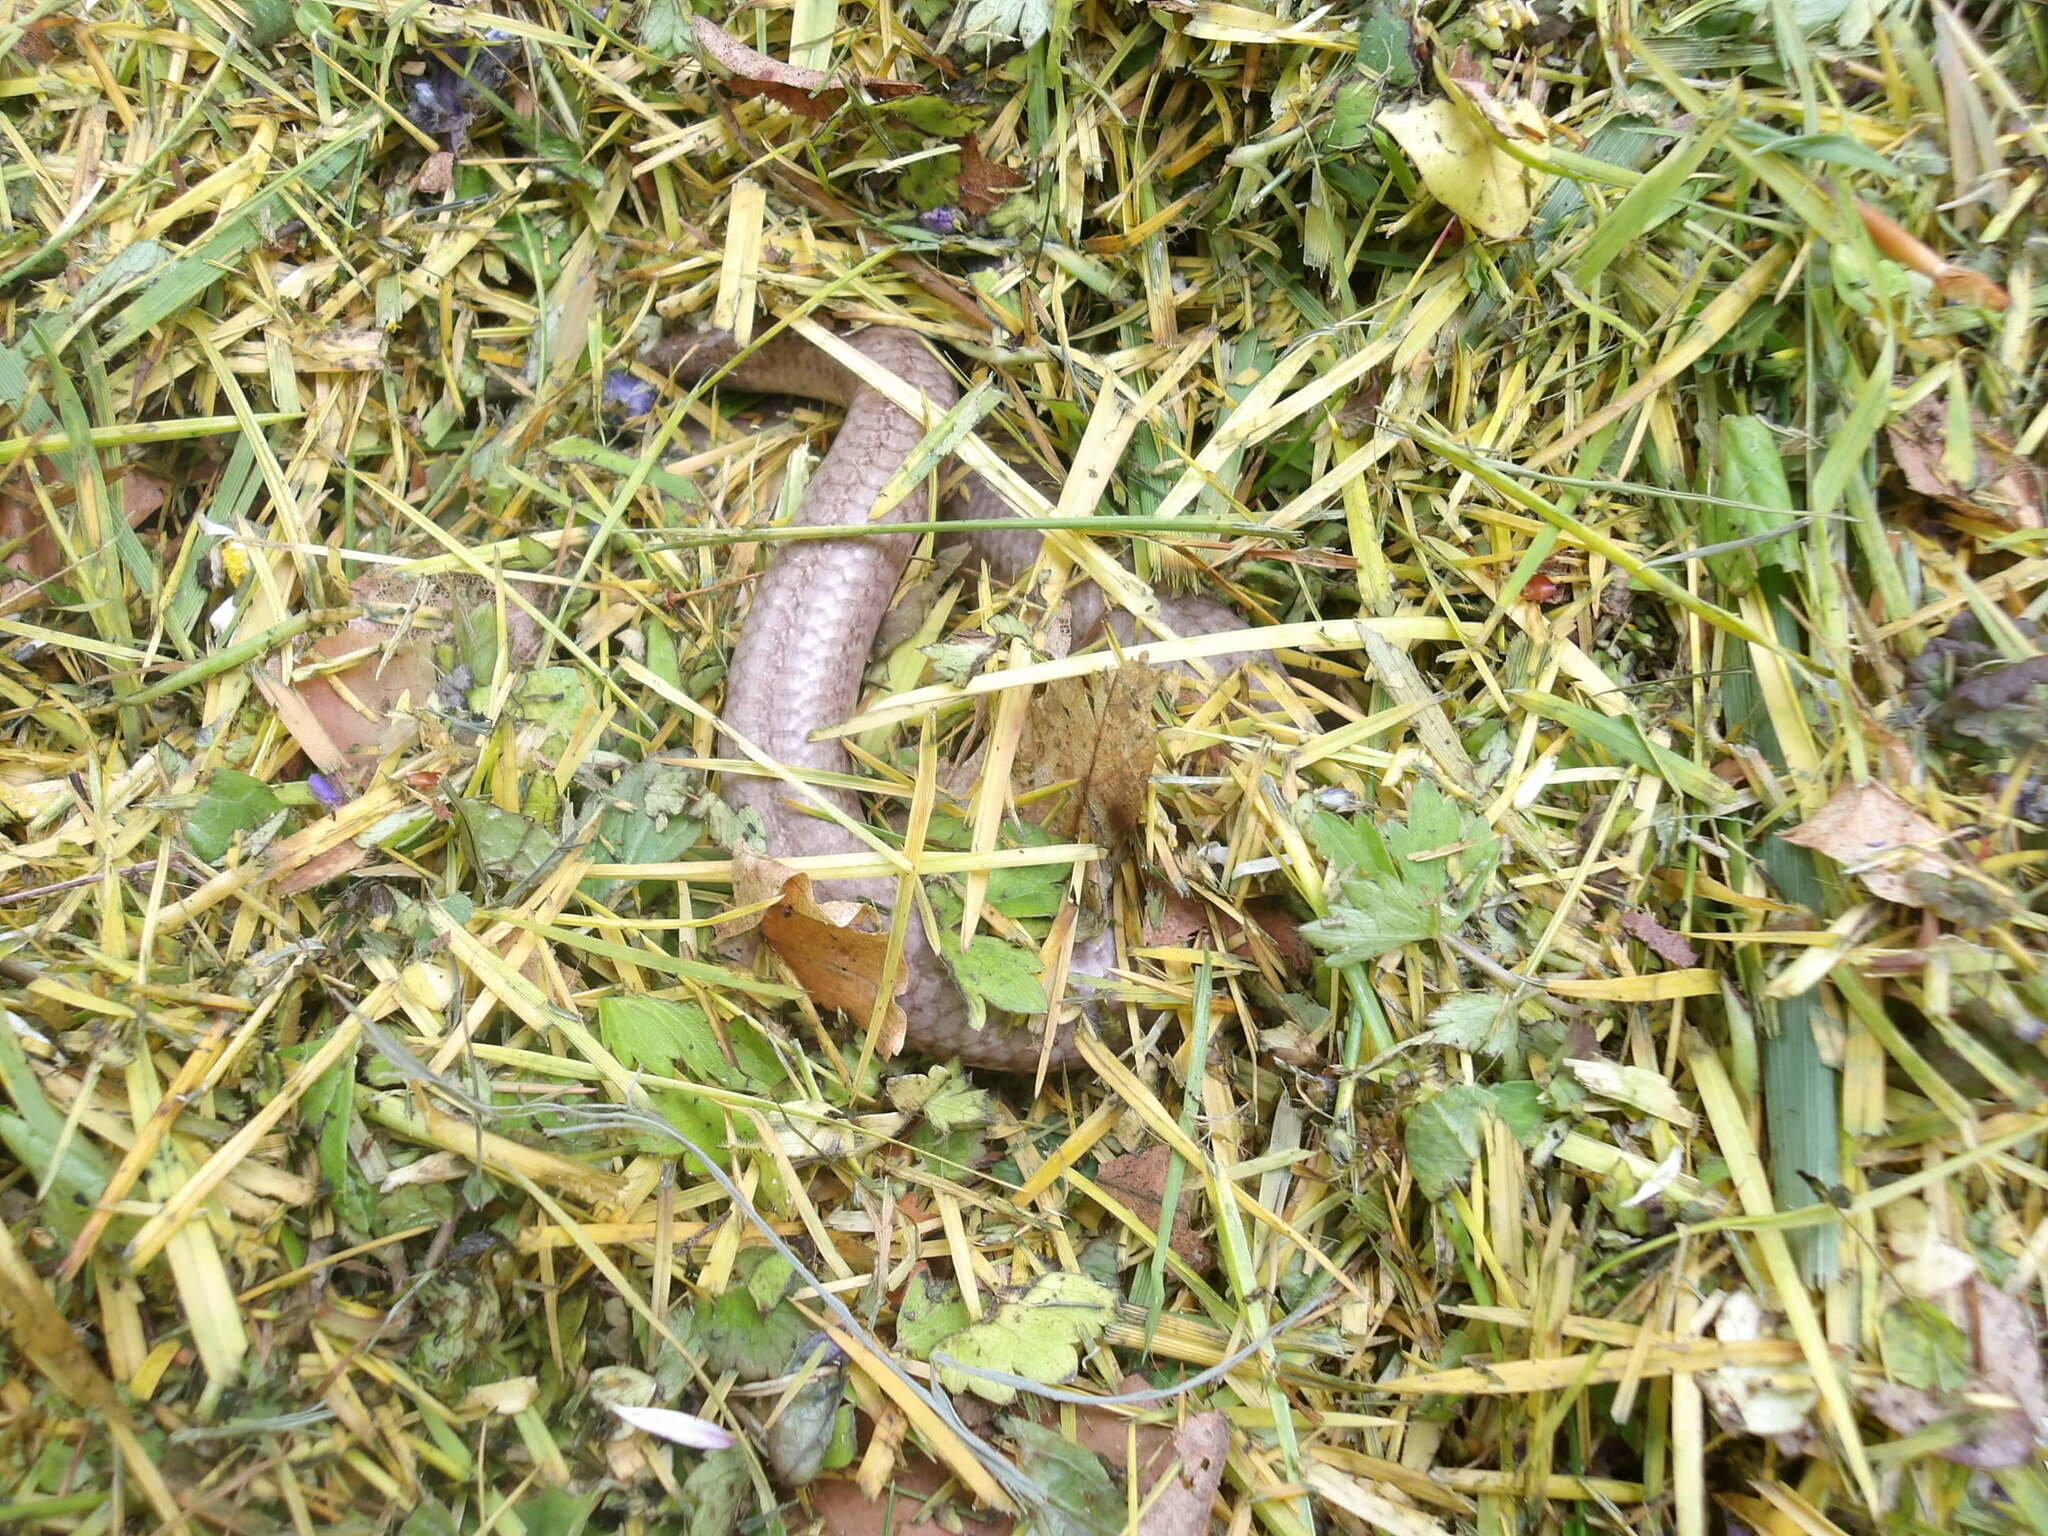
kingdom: Animalia
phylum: Chordata
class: Squamata
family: Anguidae
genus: Anguis
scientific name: Anguis fragilis
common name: Slow worm
